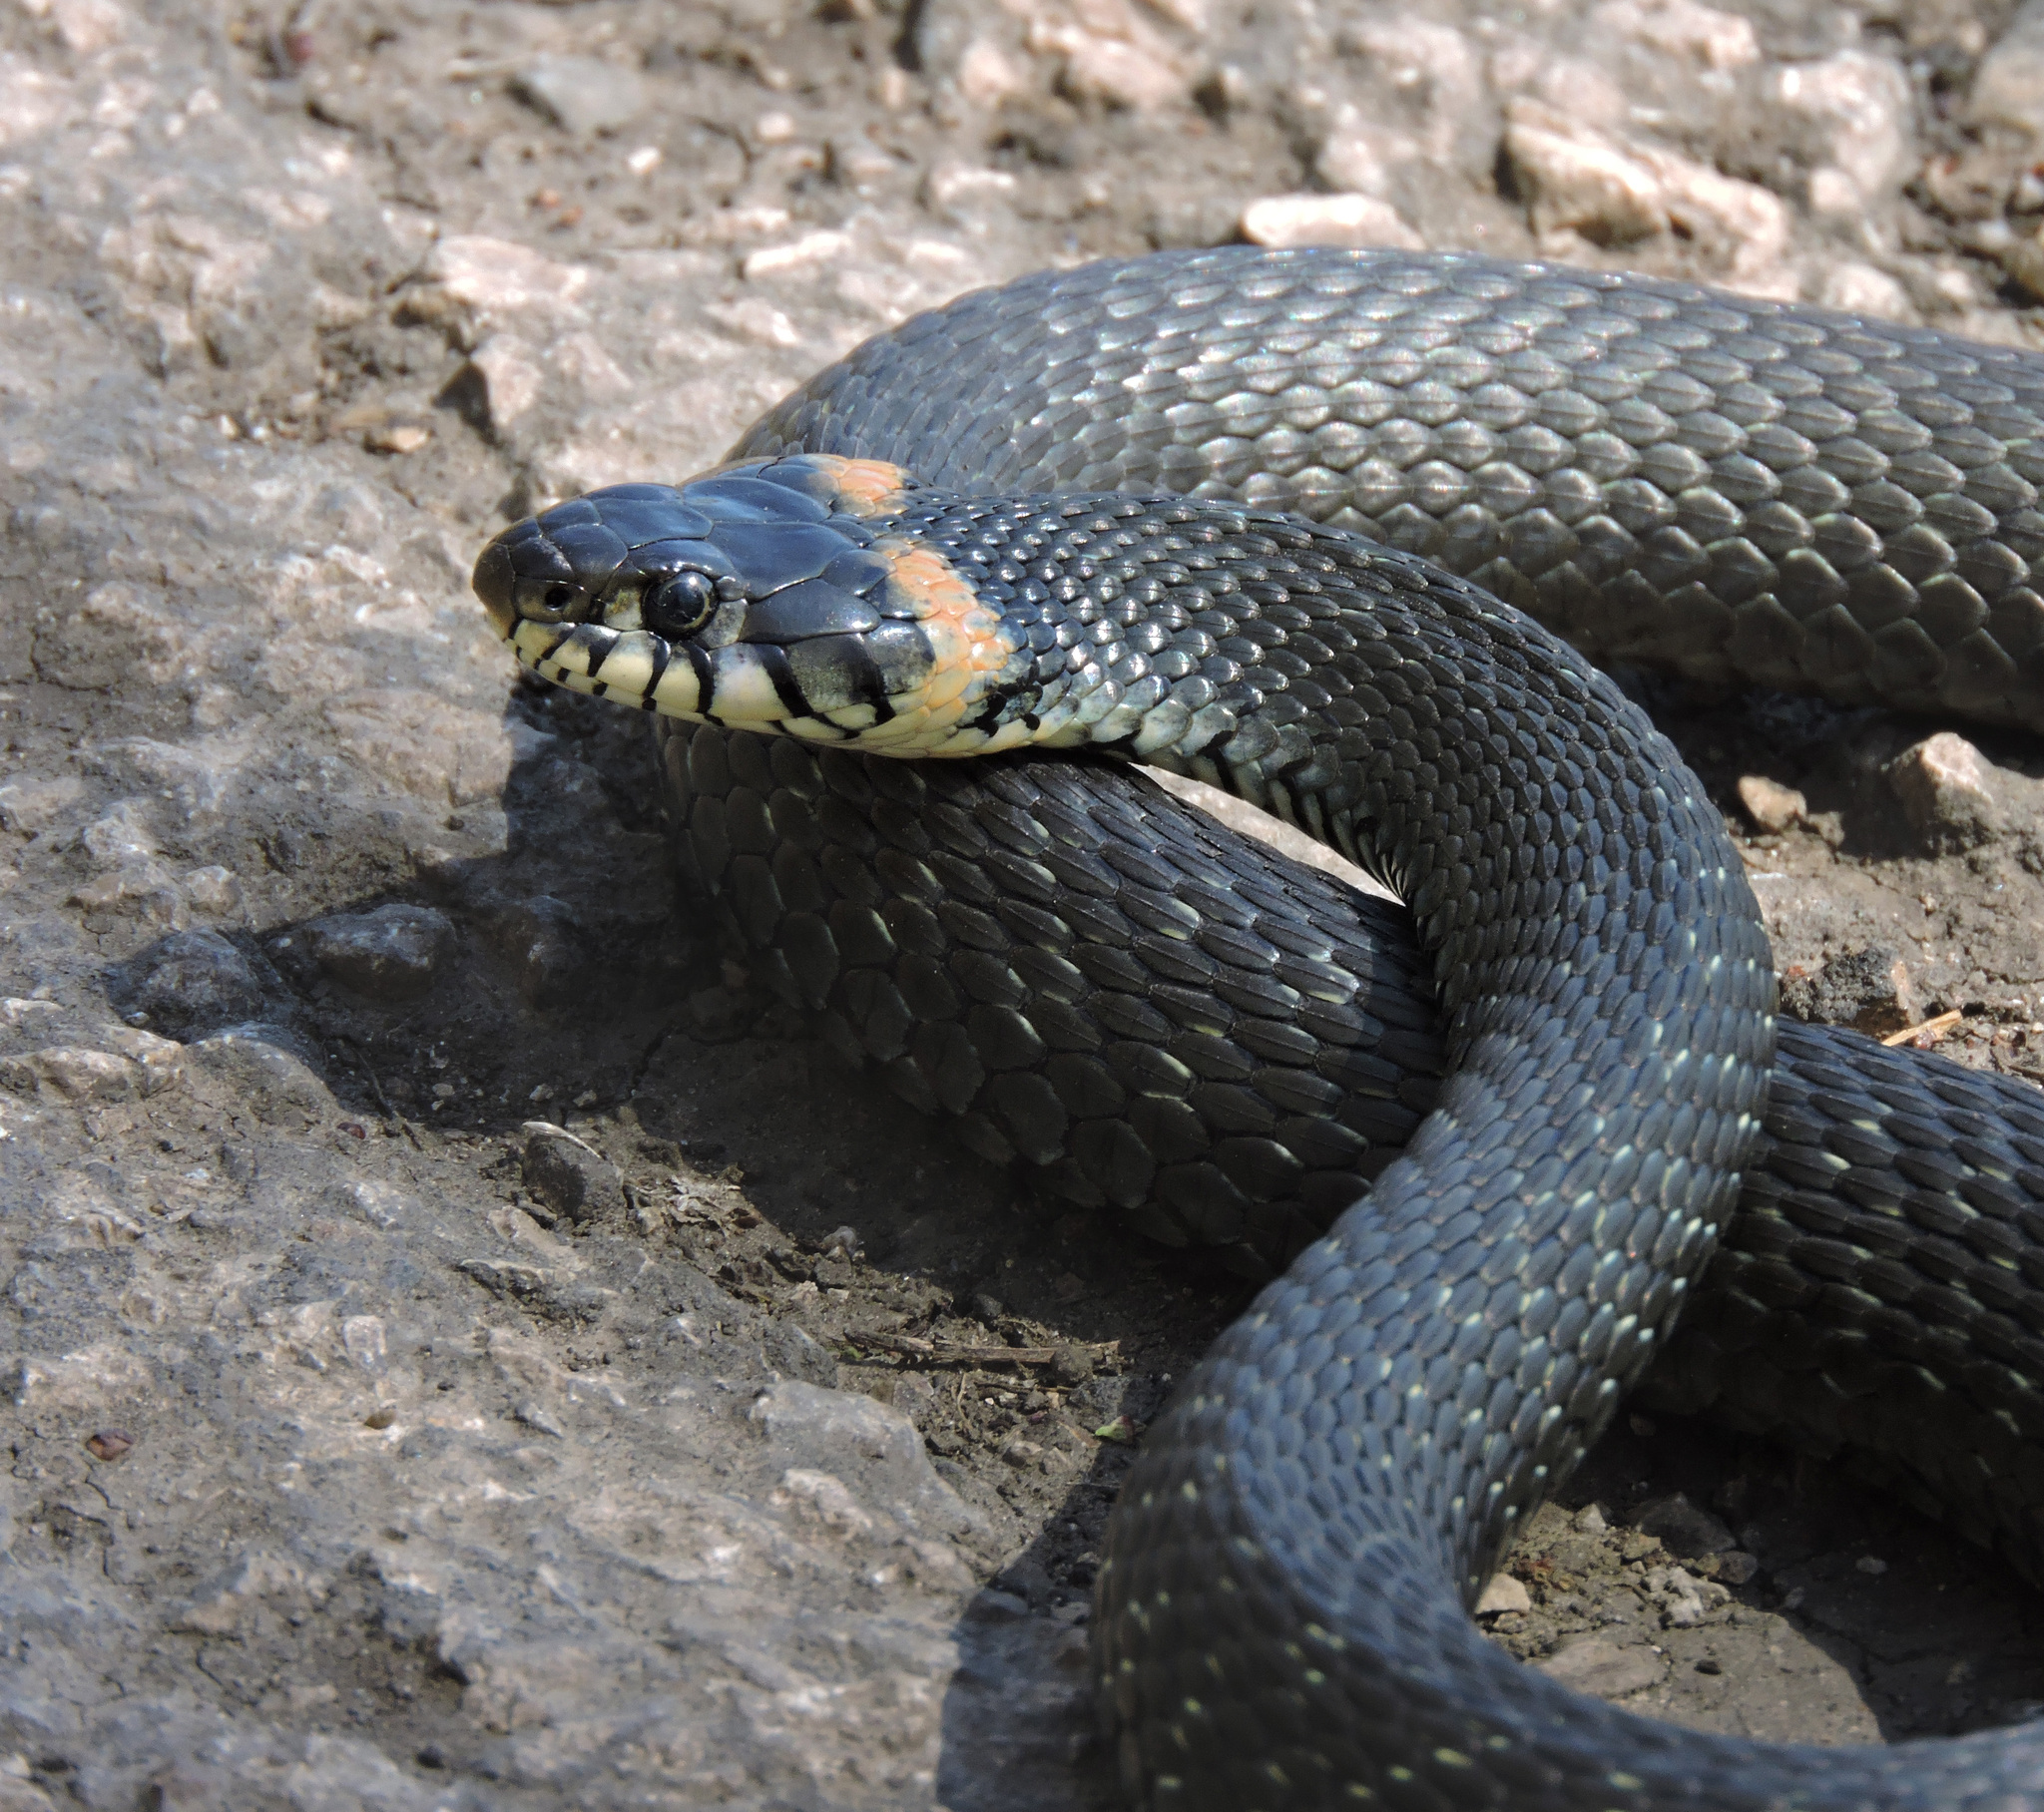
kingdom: Animalia
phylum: Chordata
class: Squamata
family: Colubridae
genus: Natrix
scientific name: Natrix natrix
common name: Grass snake
